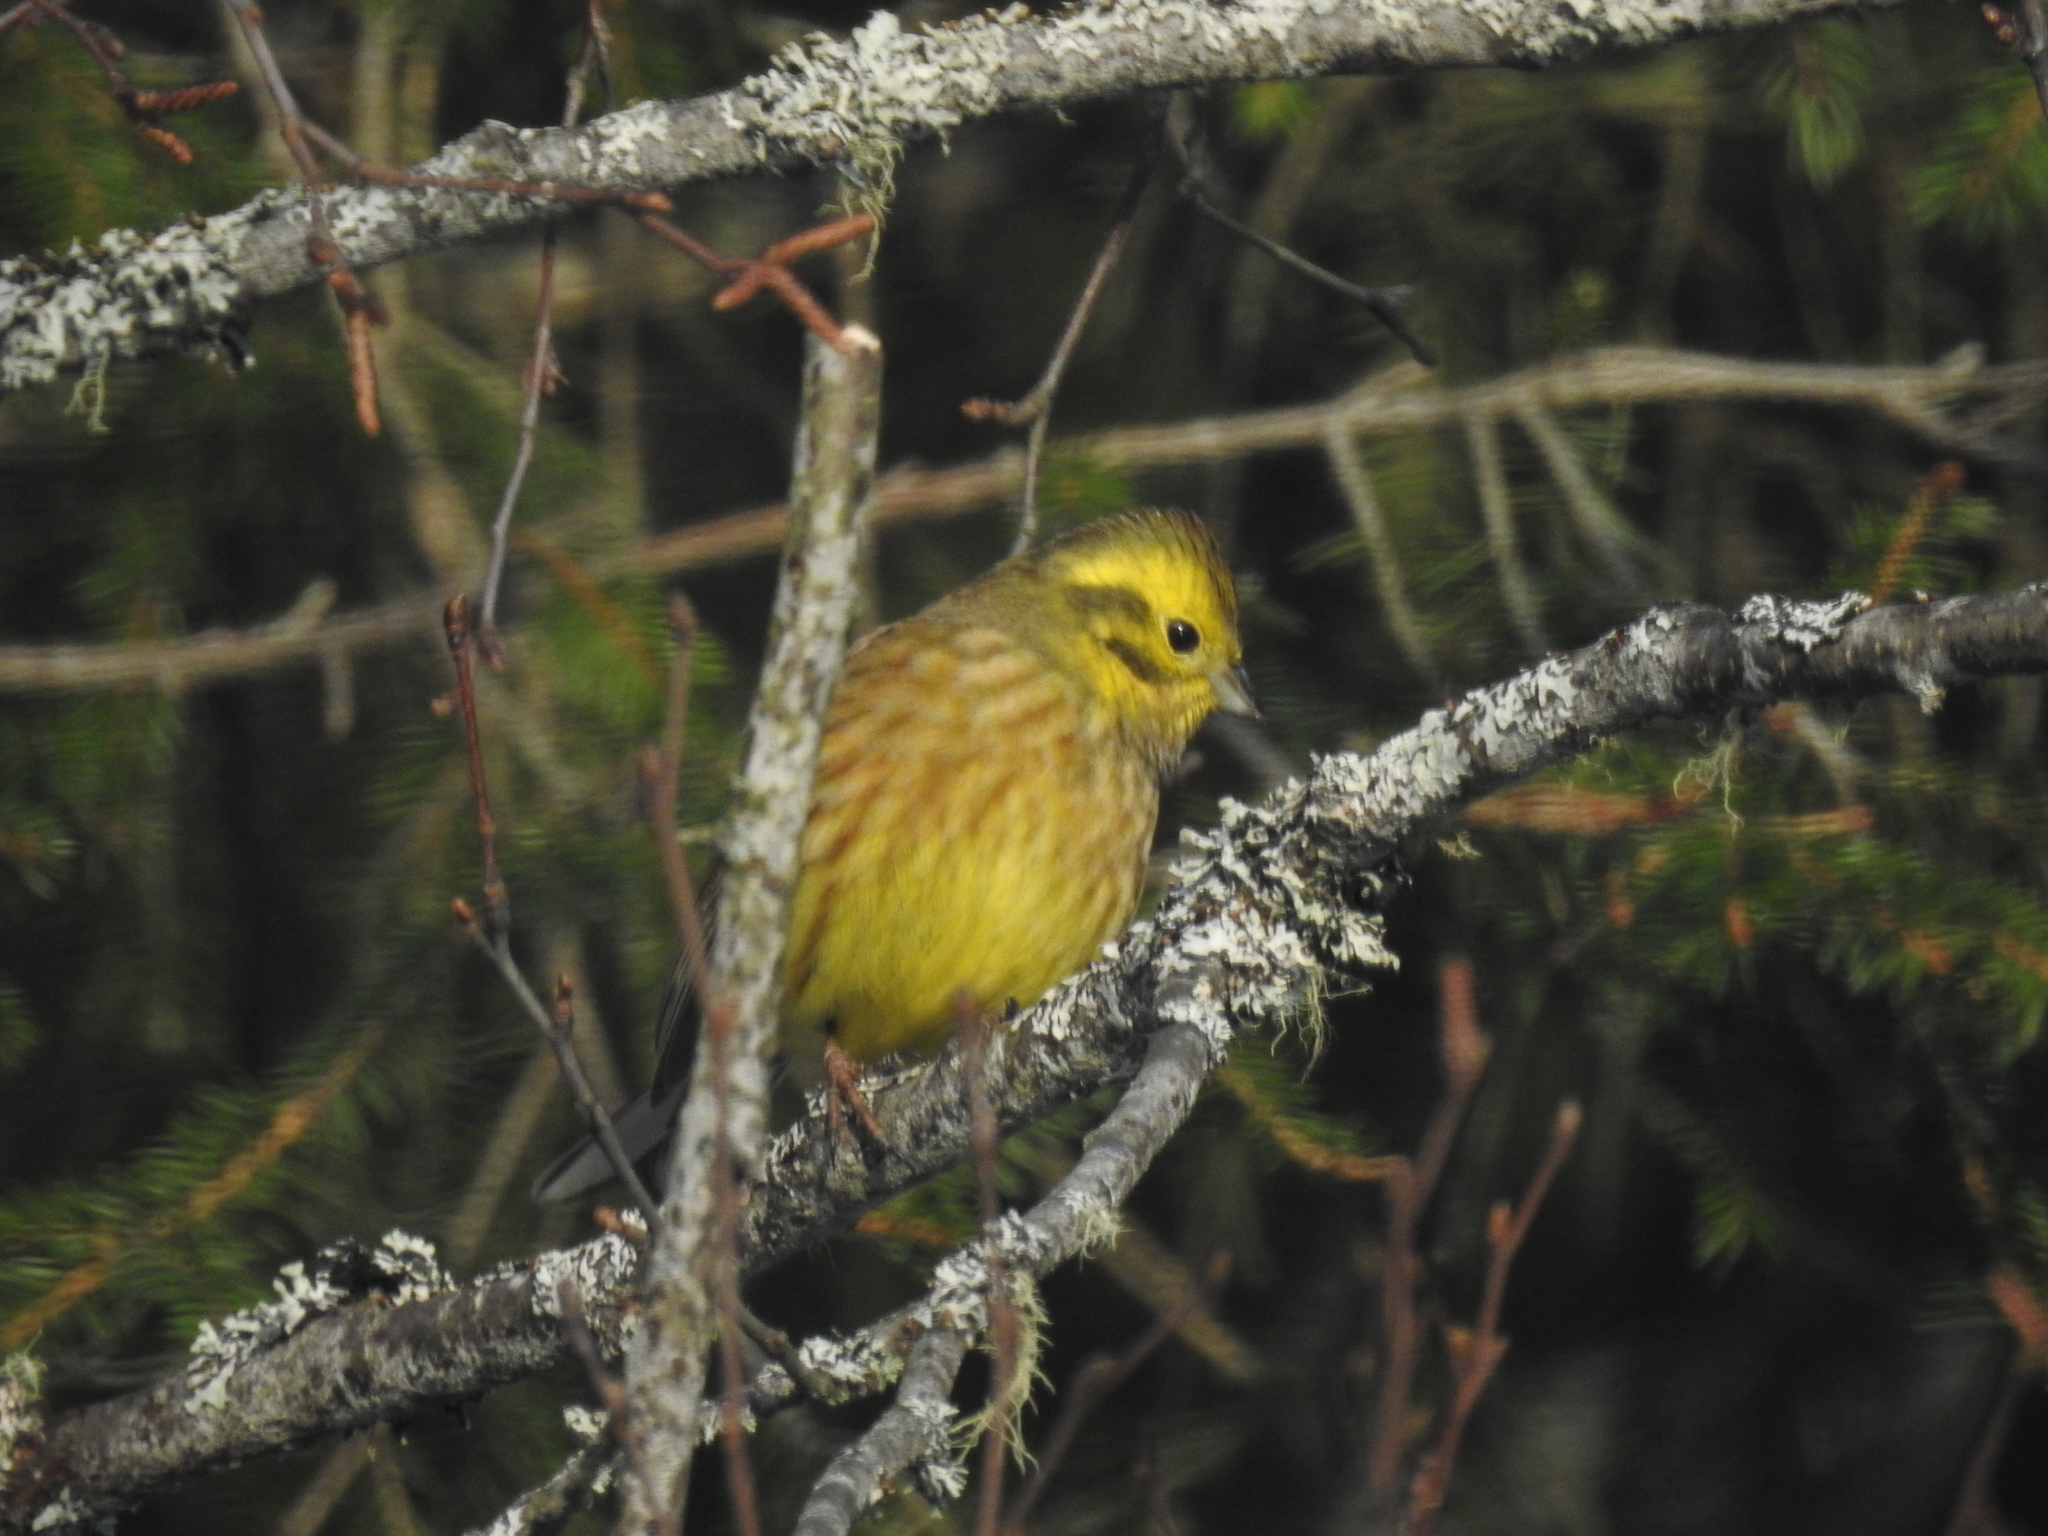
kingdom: Animalia
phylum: Chordata
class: Aves
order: Passeriformes
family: Emberizidae
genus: Emberiza
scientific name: Emberiza citrinella
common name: Yellowhammer
